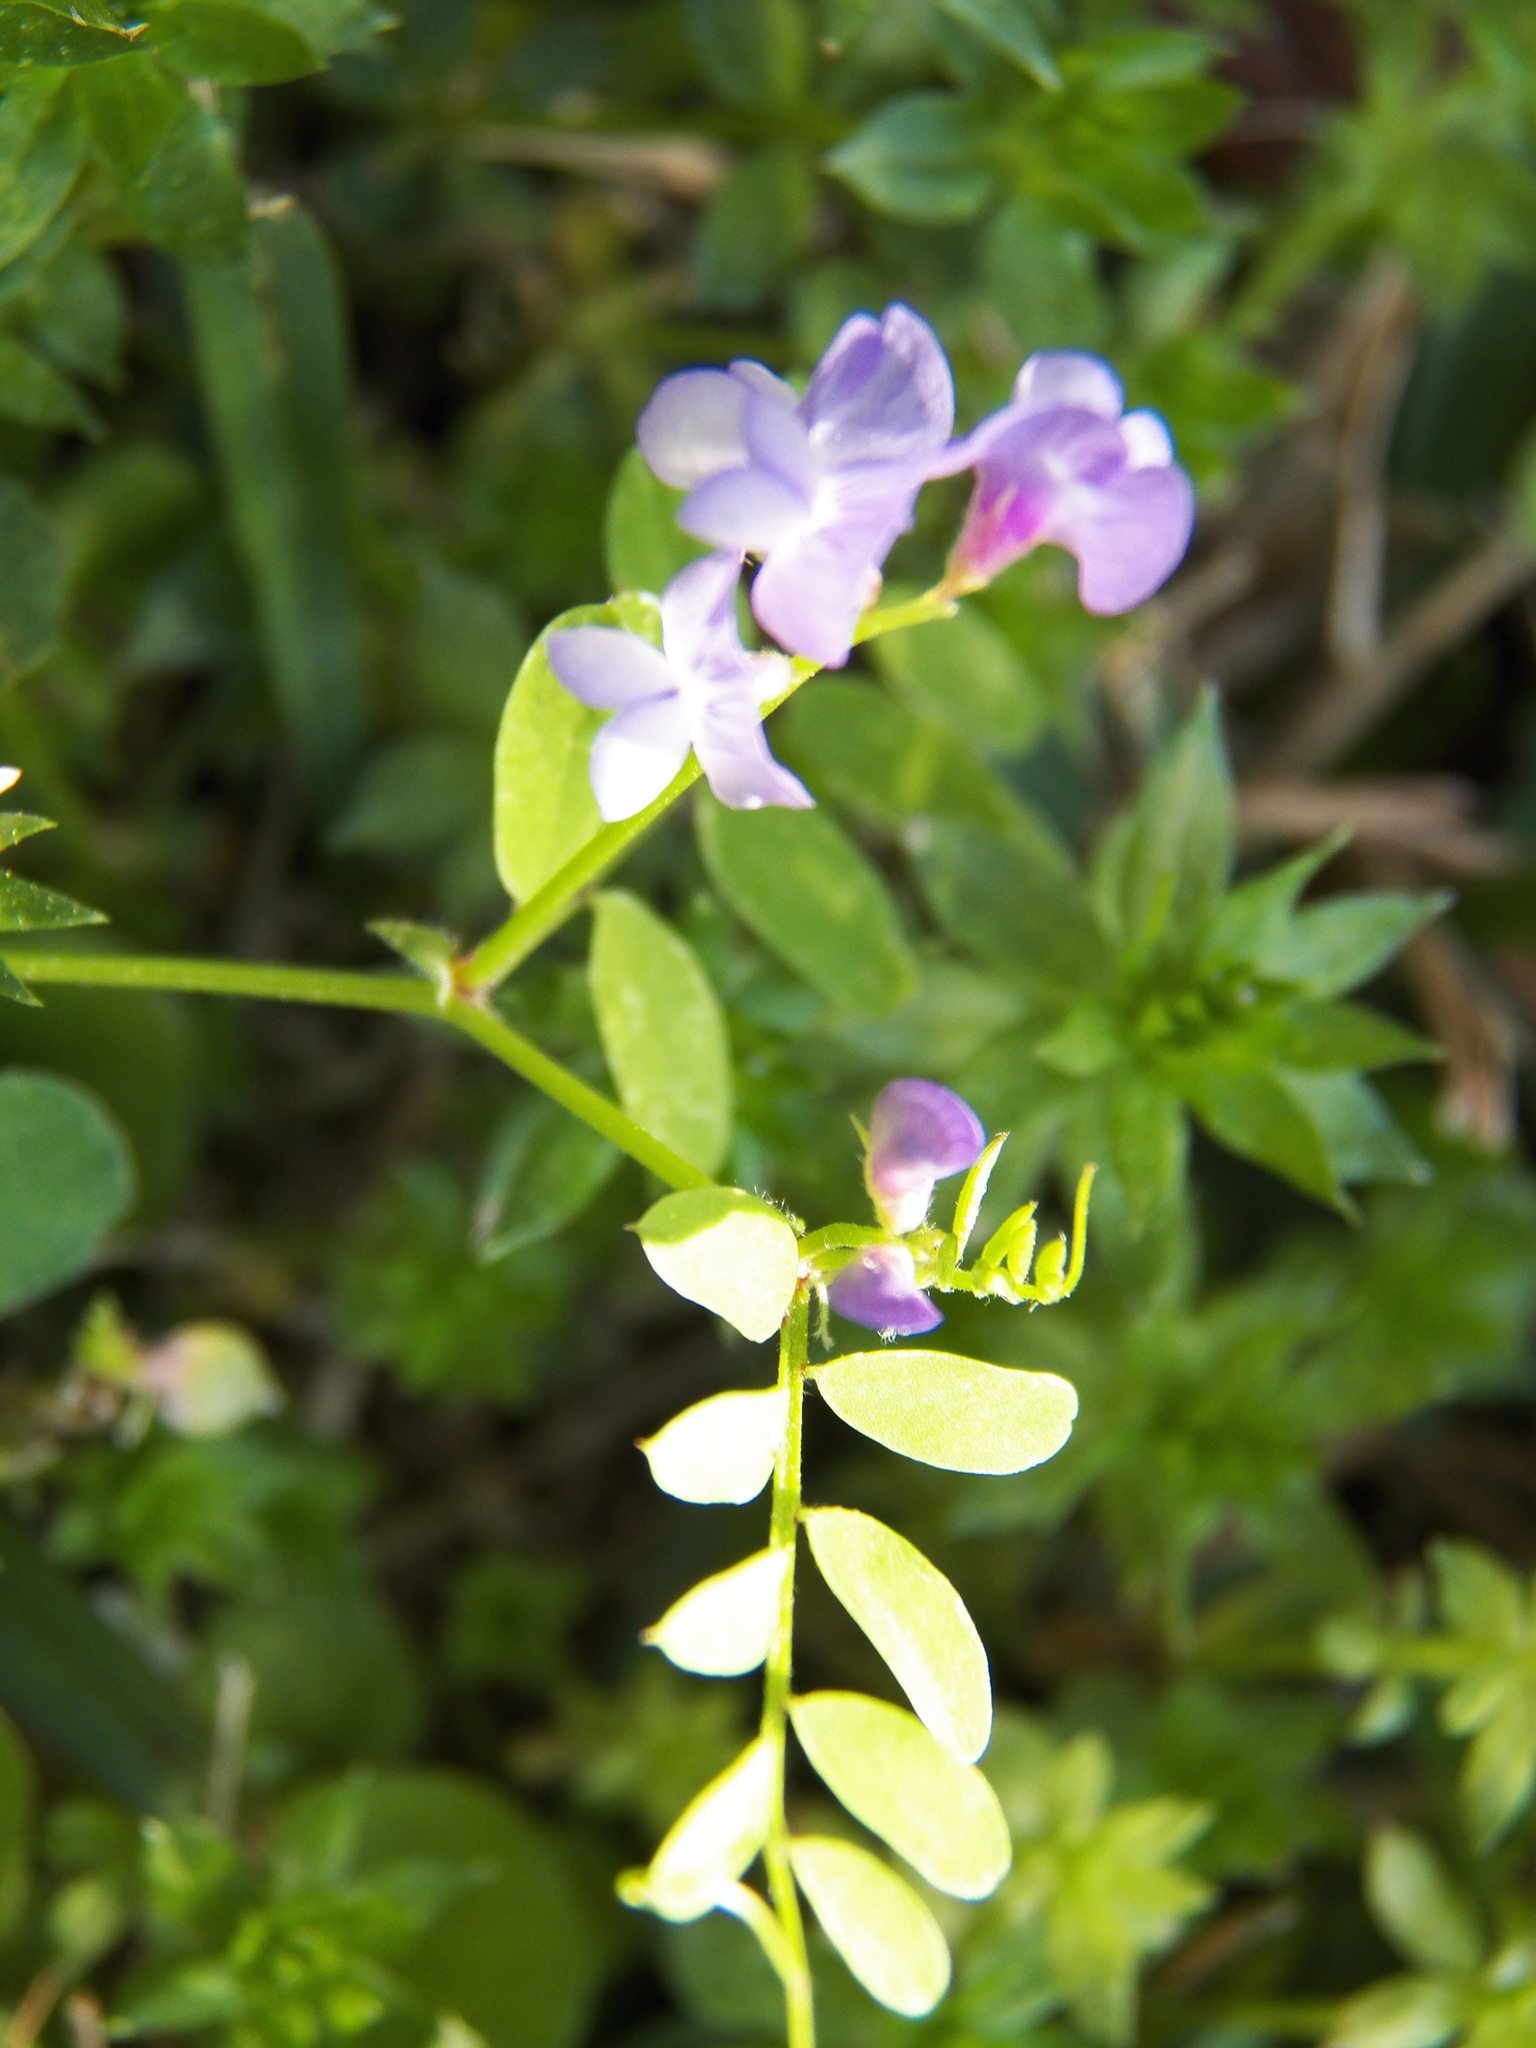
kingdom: Plantae
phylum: Tracheophyta
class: Magnoliopsida
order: Fabales
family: Fabaceae
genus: Vicia
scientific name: Vicia ludoviciana
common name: Louisiana vetch
